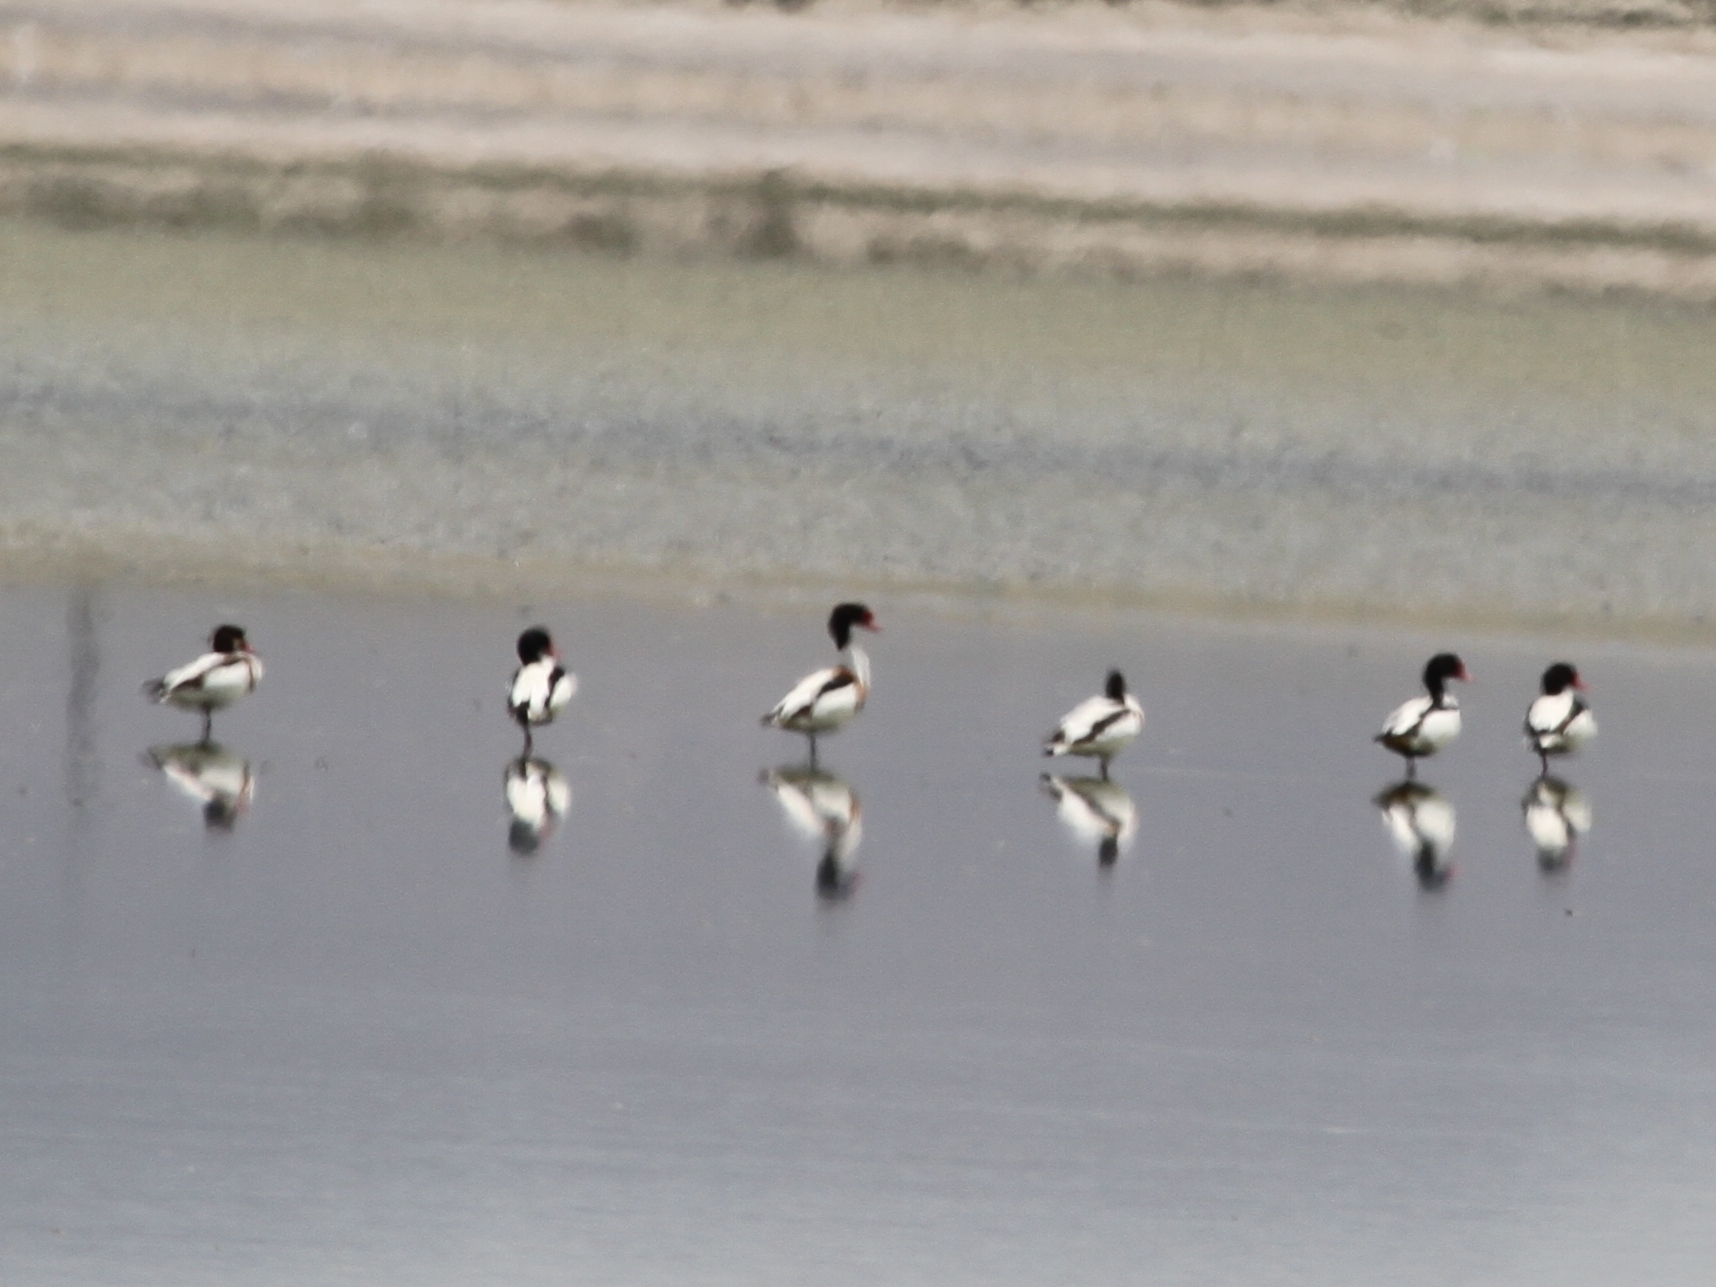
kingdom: Animalia
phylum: Chordata
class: Aves
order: Anseriformes
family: Anatidae
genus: Tadorna
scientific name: Tadorna tadorna
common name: Common shelduck
